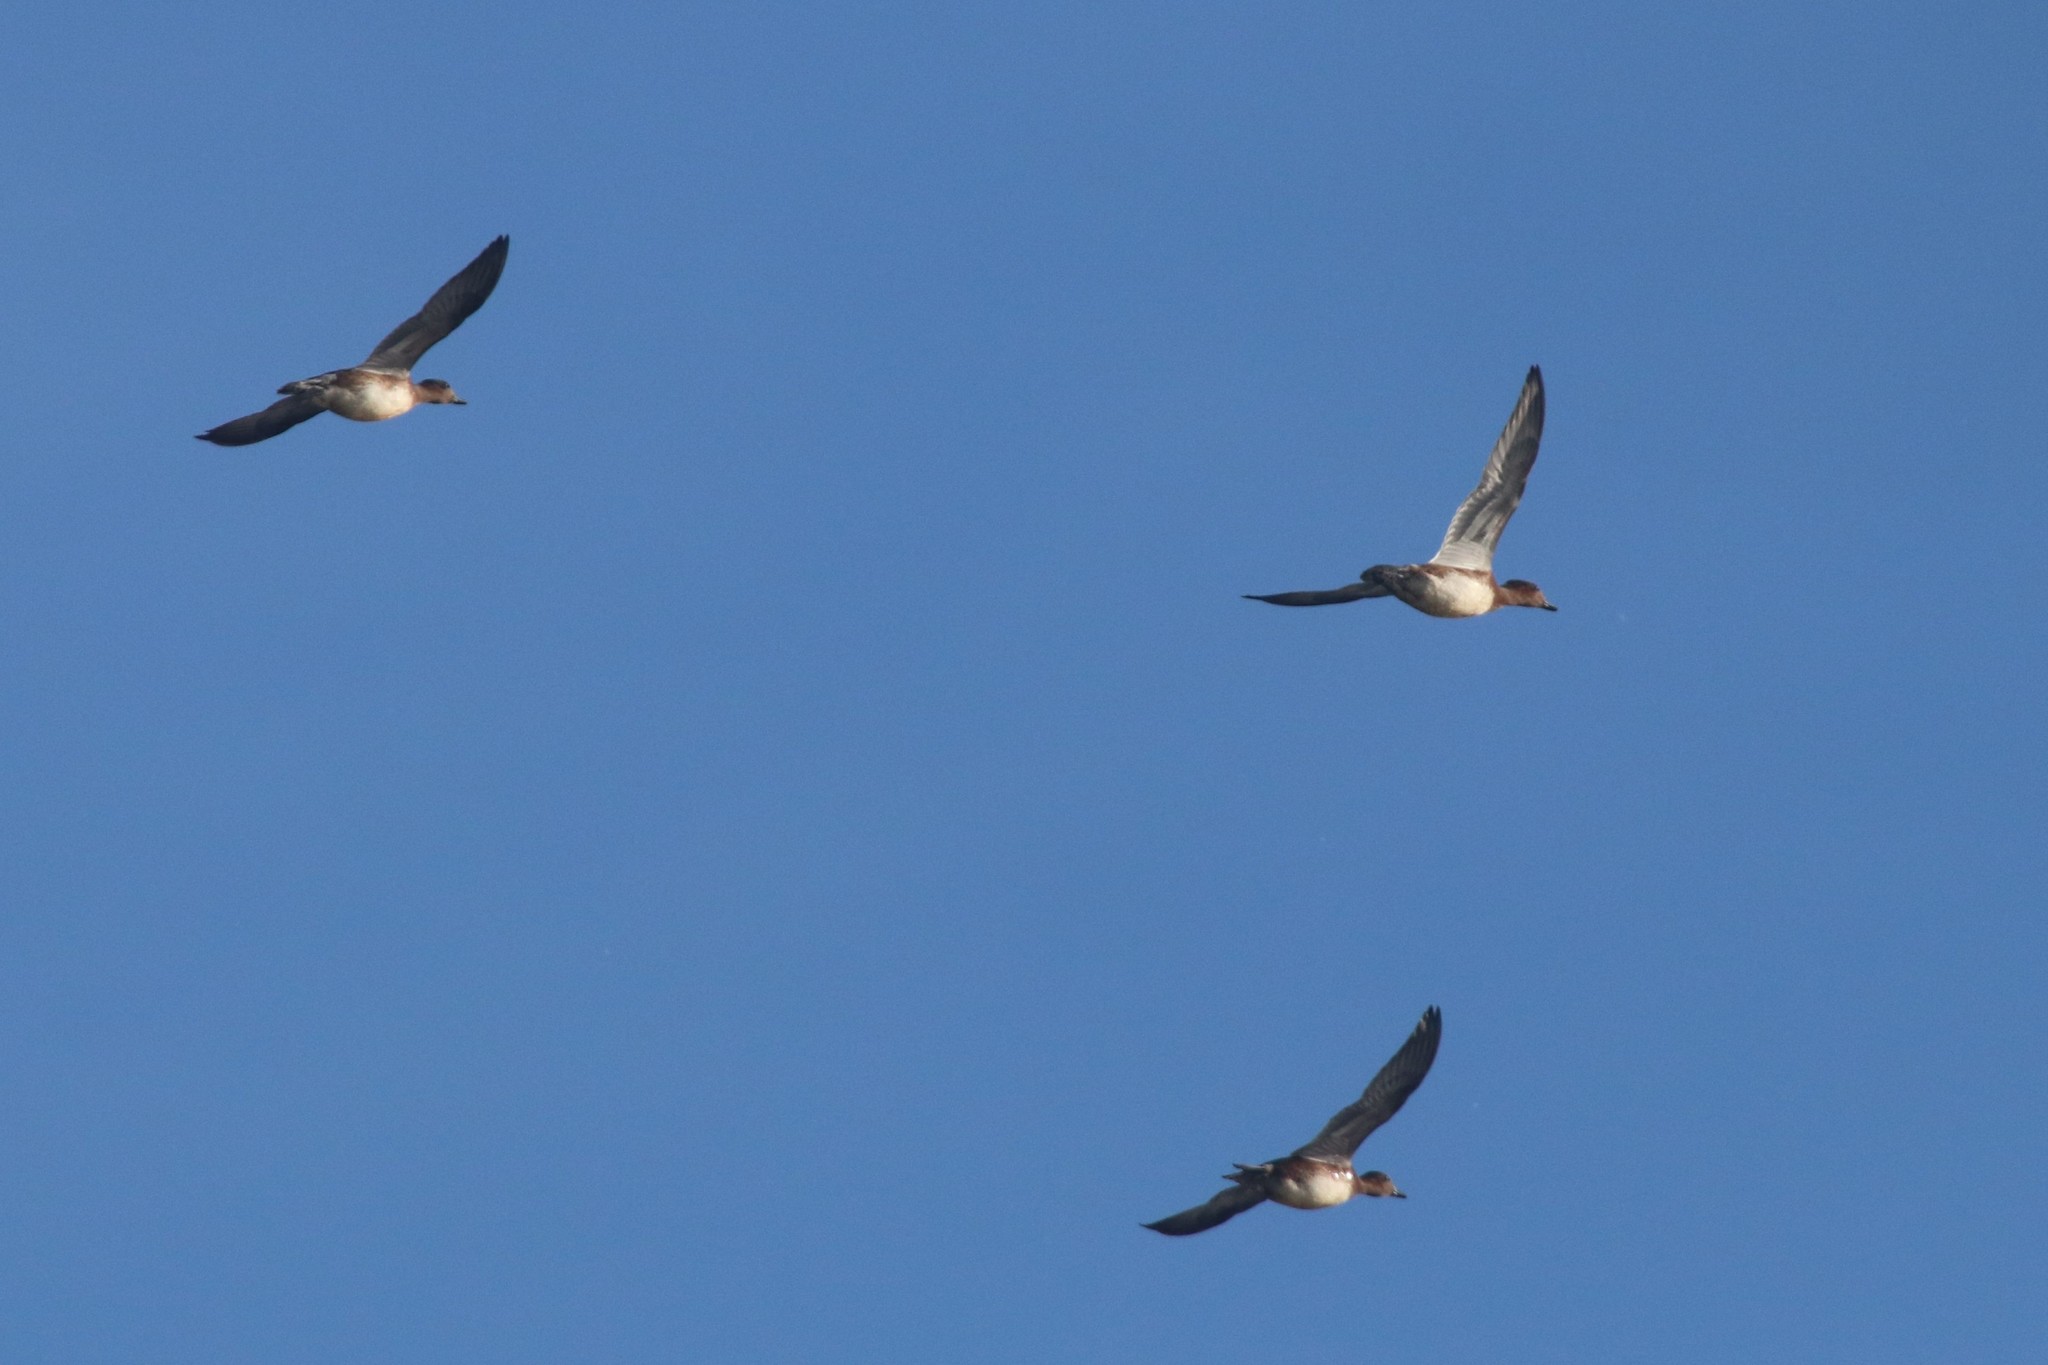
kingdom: Animalia
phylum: Chordata
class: Aves
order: Anseriformes
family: Anatidae
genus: Mareca
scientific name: Mareca penelope
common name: Eurasian wigeon
